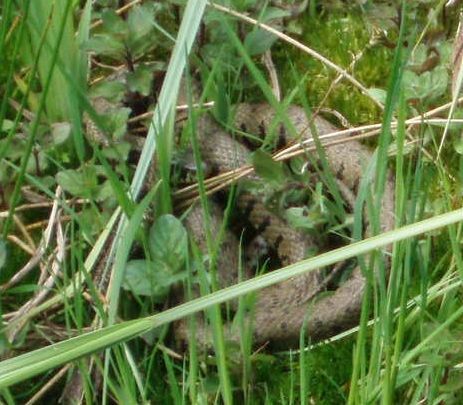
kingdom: Animalia
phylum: Chordata
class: Squamata
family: Colubridae
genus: Natrix
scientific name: Natrix helvetica
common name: Banded grass snake
